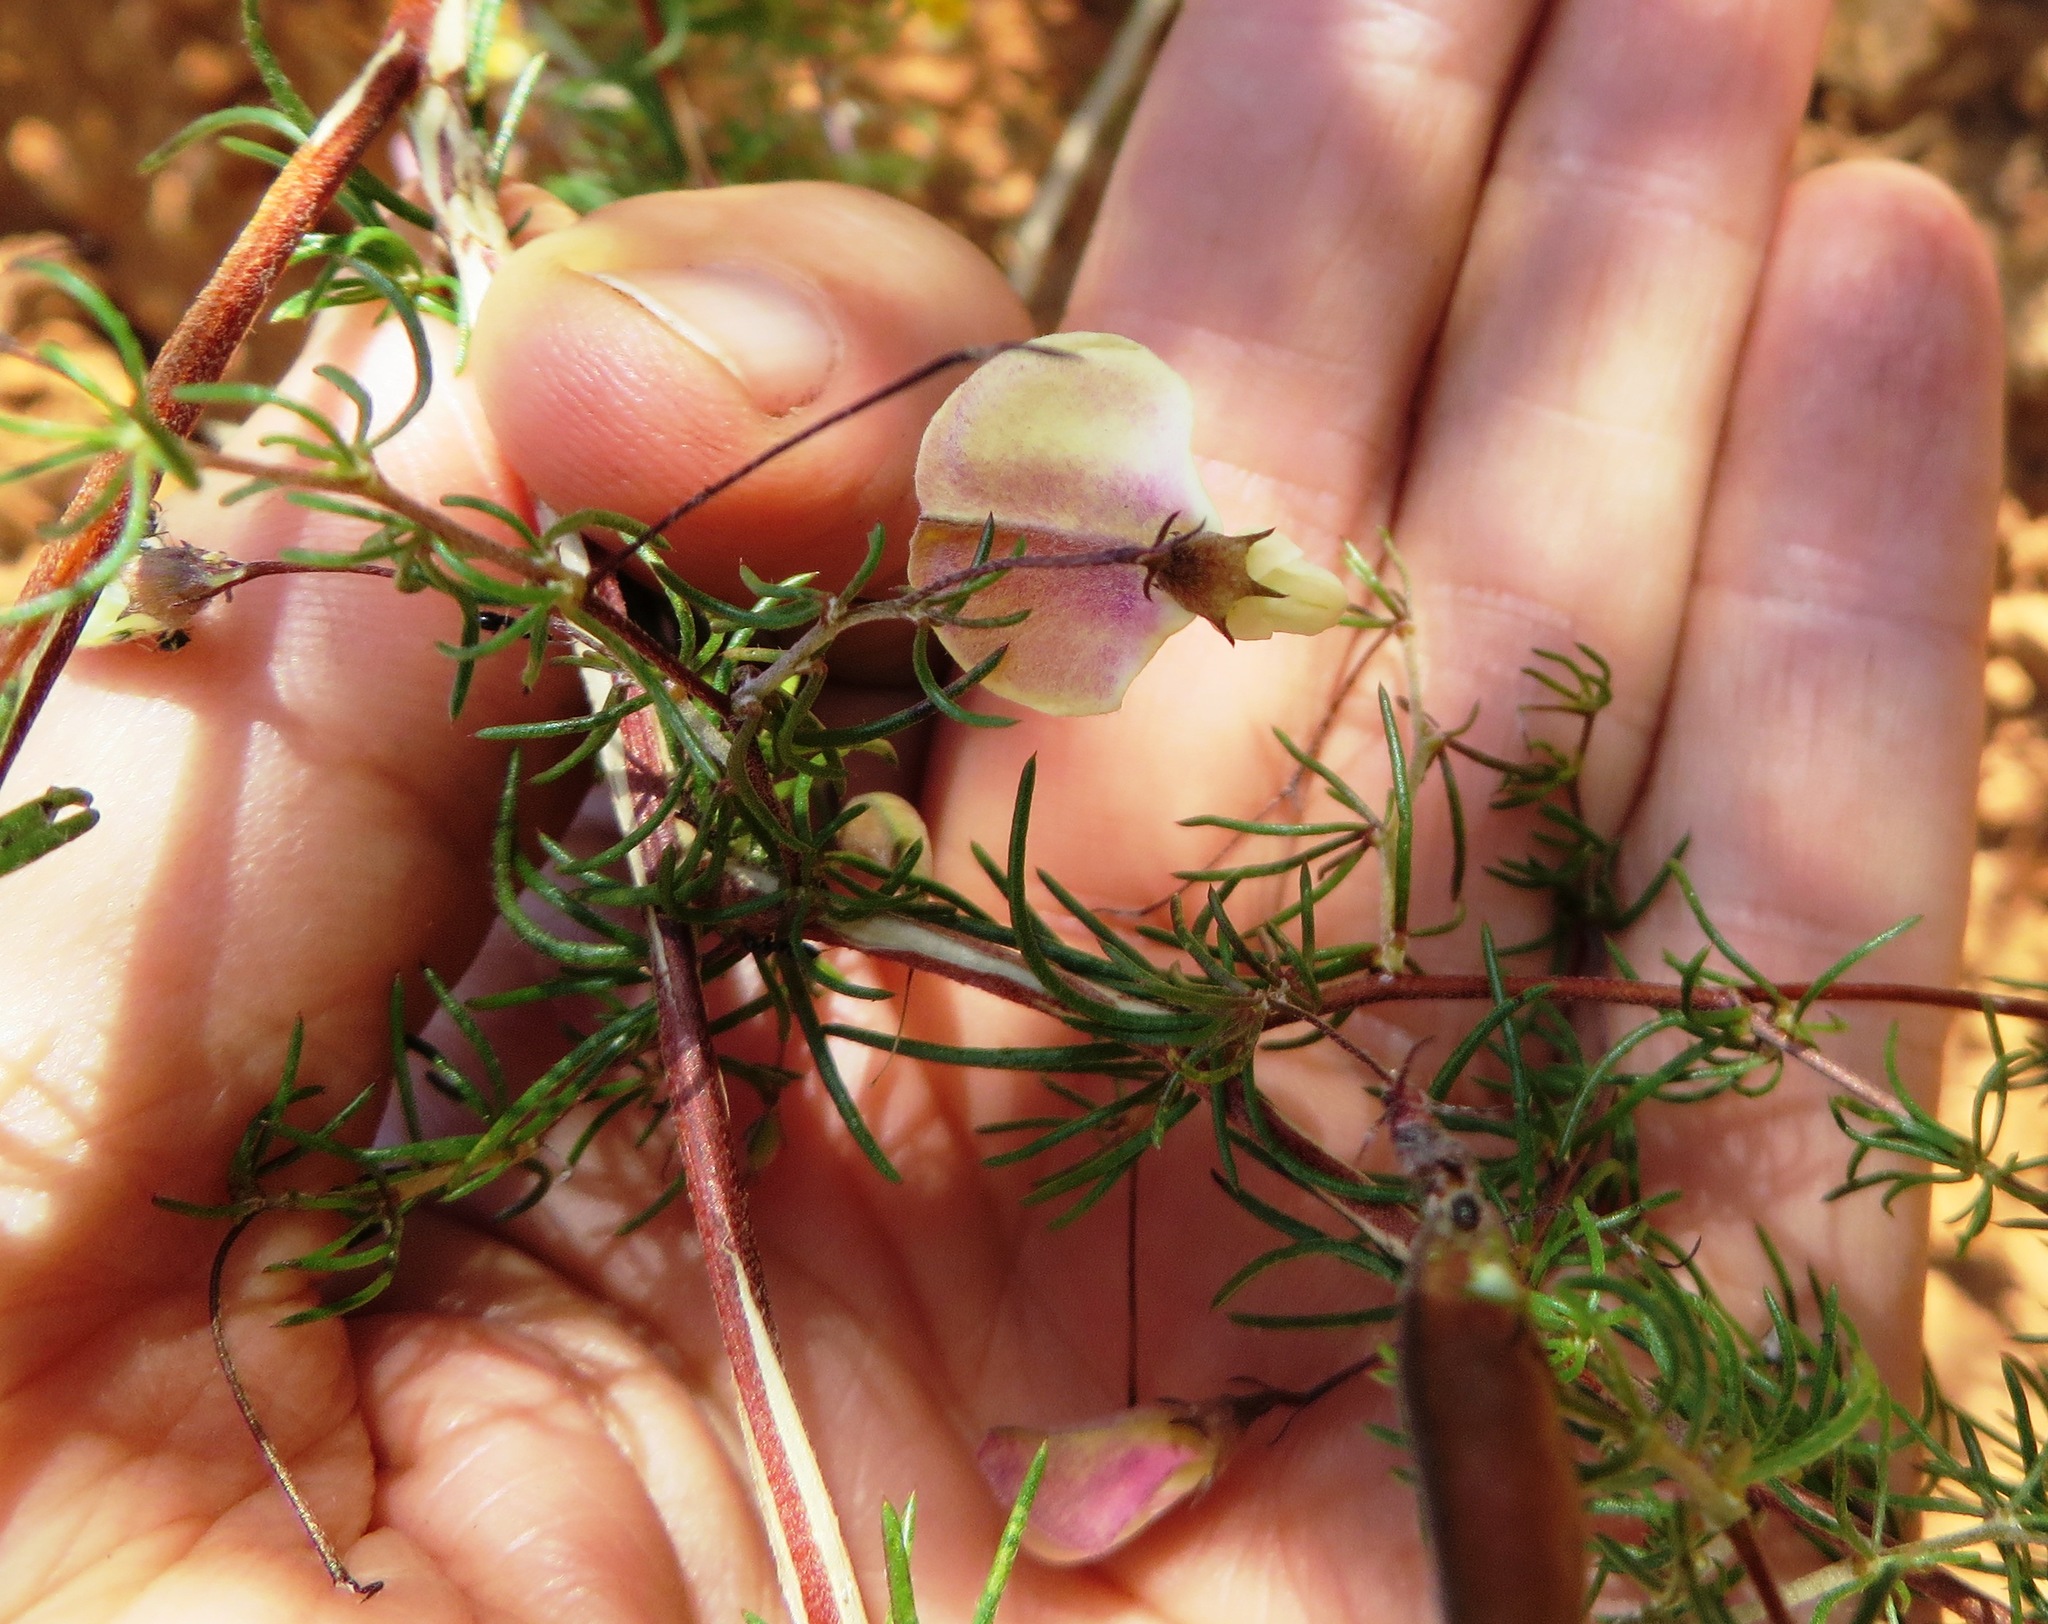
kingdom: Plantae
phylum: Tracheophyta
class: Magnoliopsida
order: Fabales
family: Fabaceae
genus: Aspalathus
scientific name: Aspalathus bracteata
